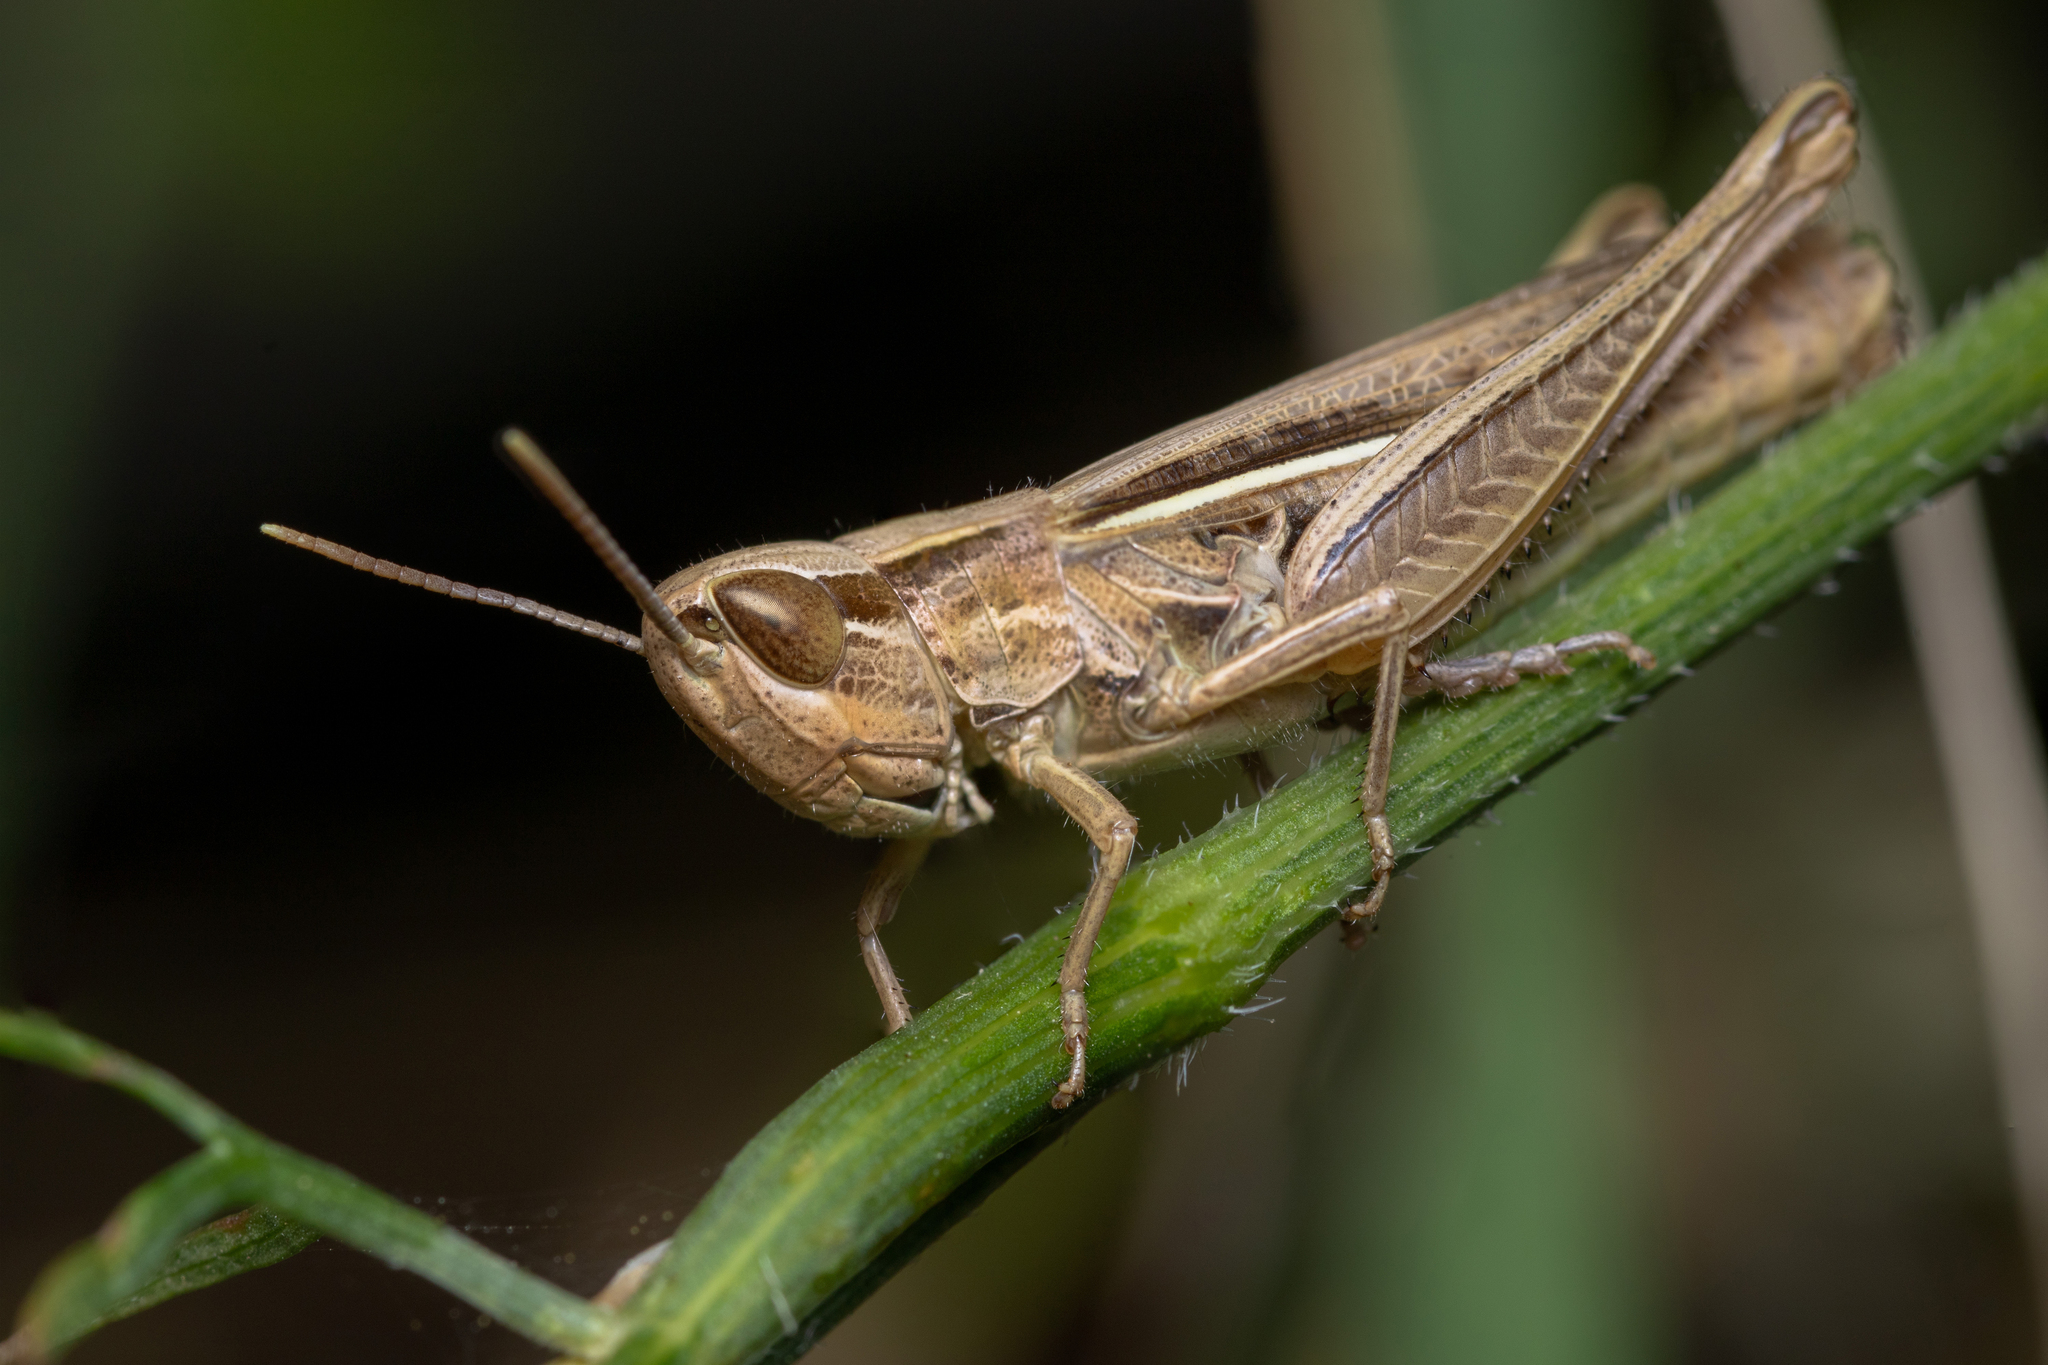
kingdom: Animalia
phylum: Arthropoda
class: Insecta
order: Orthoptera
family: Acrididae
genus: Euchorthippus
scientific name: Euchorthippus elegantulus
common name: Elegant straw grasshopper
